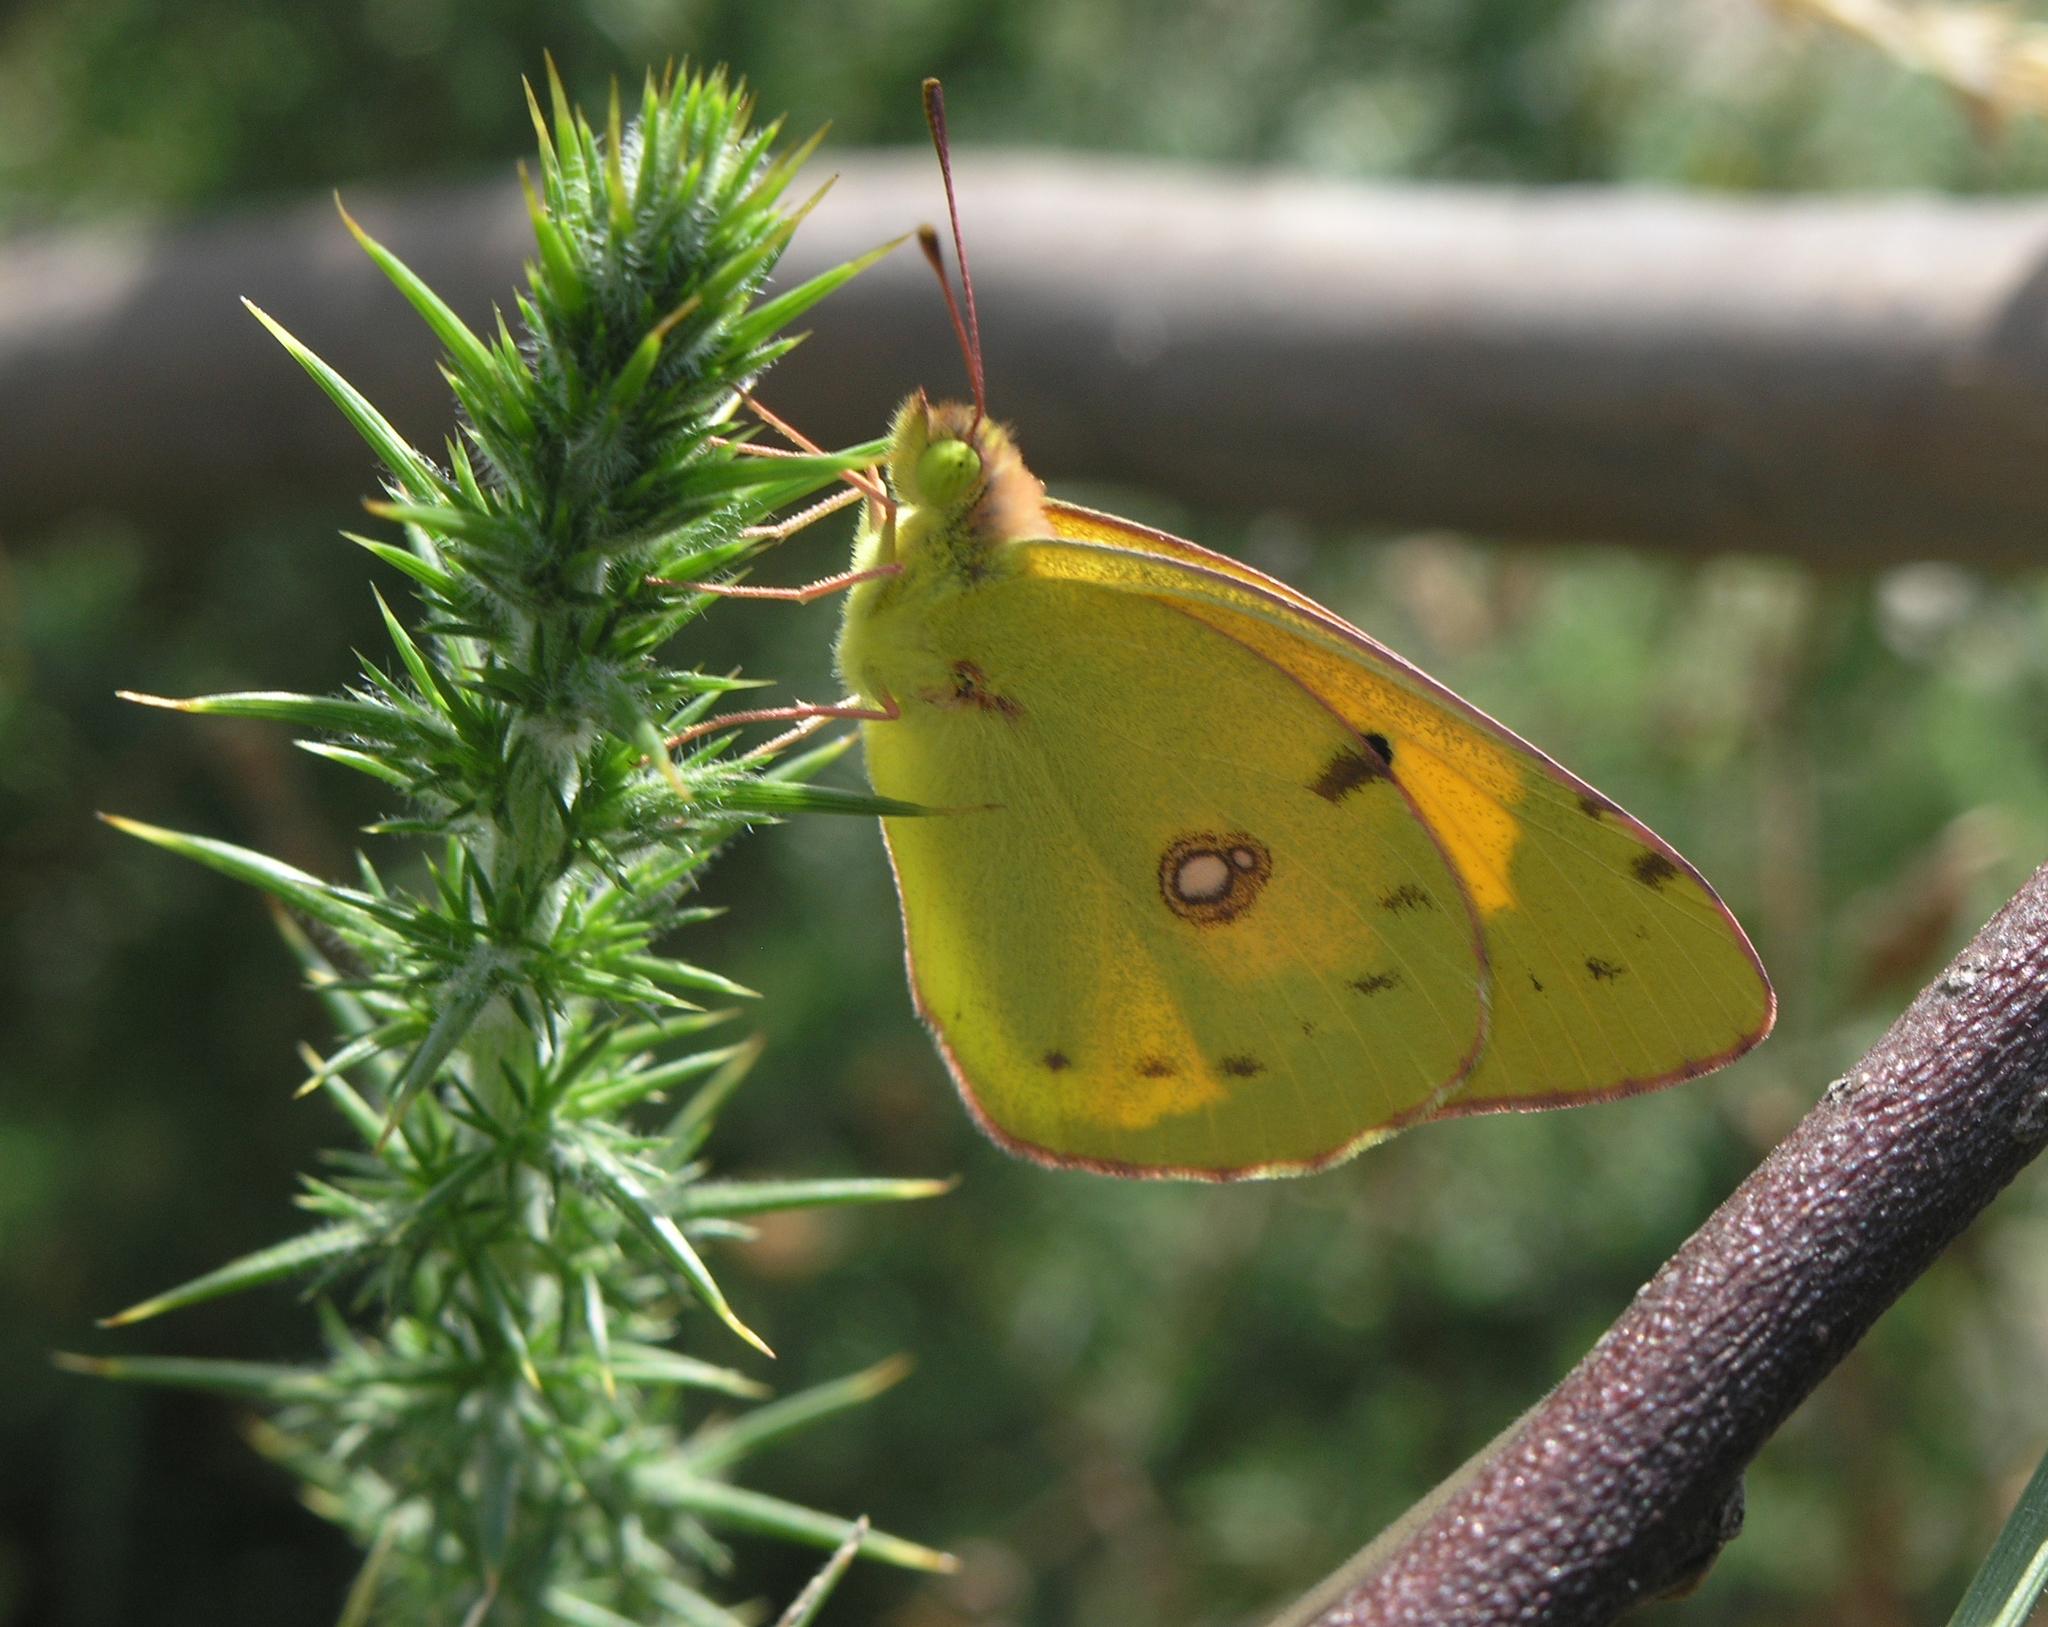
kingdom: Animalia
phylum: Arthropoda
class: Insecta
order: Lepidoptera
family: Pieridae
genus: Colias
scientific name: Colias croceus
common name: Clouded yellow
